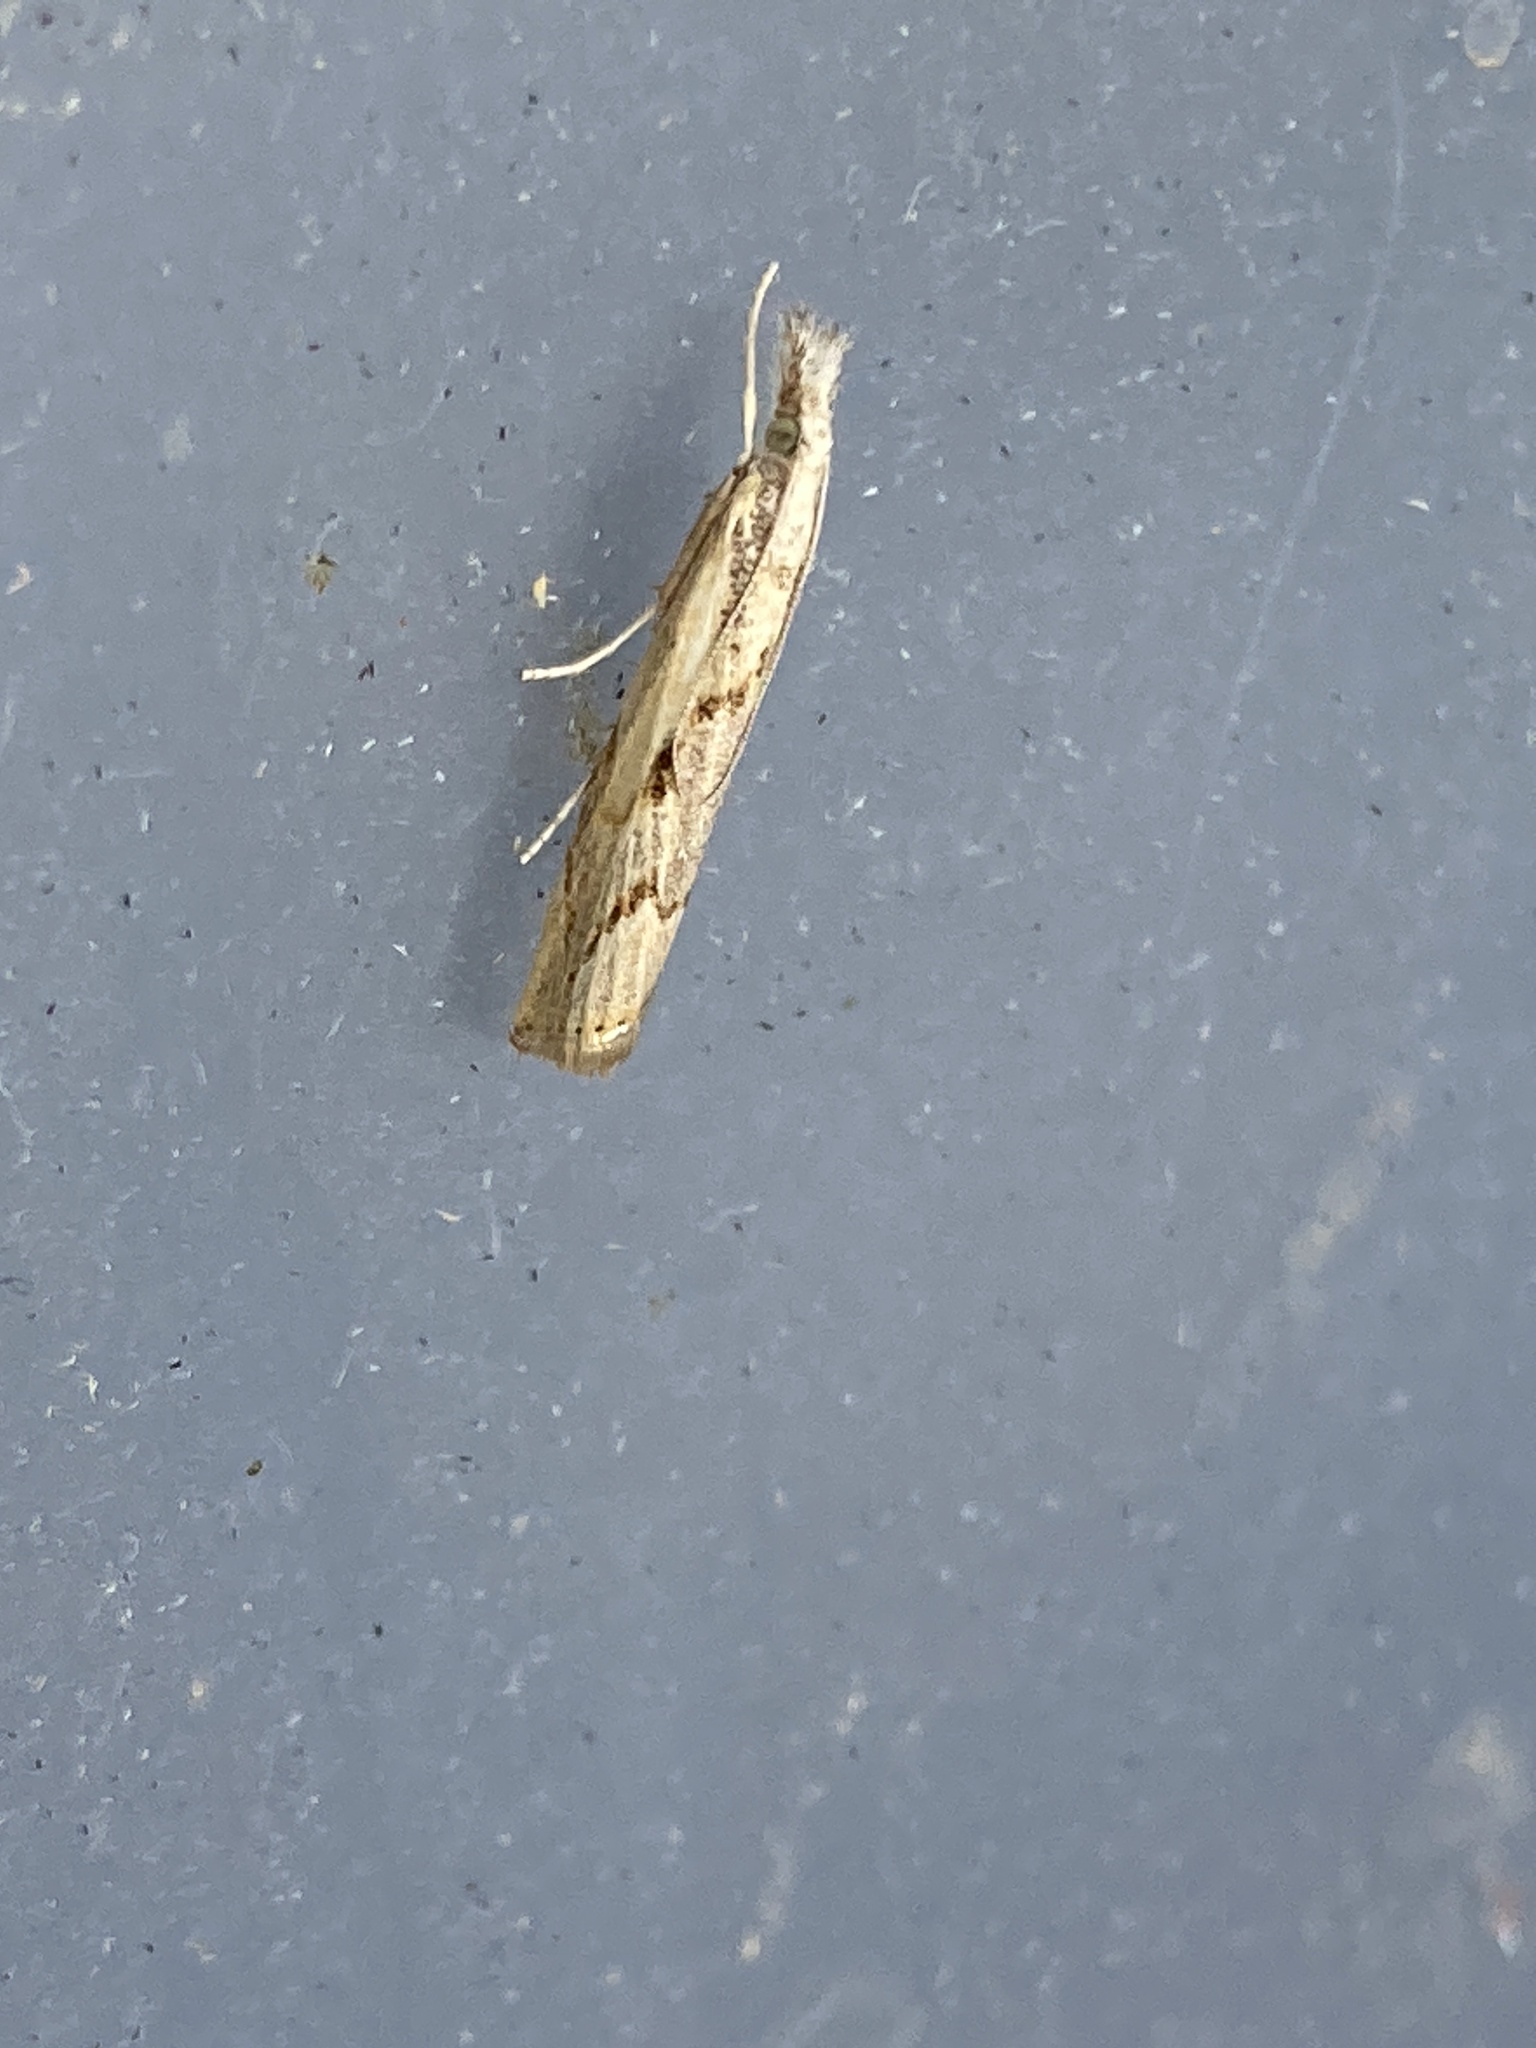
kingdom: Animalia
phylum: Arthropoda
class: Insecta
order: Lepidoptera
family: Crambidae
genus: Agriphila
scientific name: Agriphila geniculea
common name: Elbow-stripe grass-veneer
